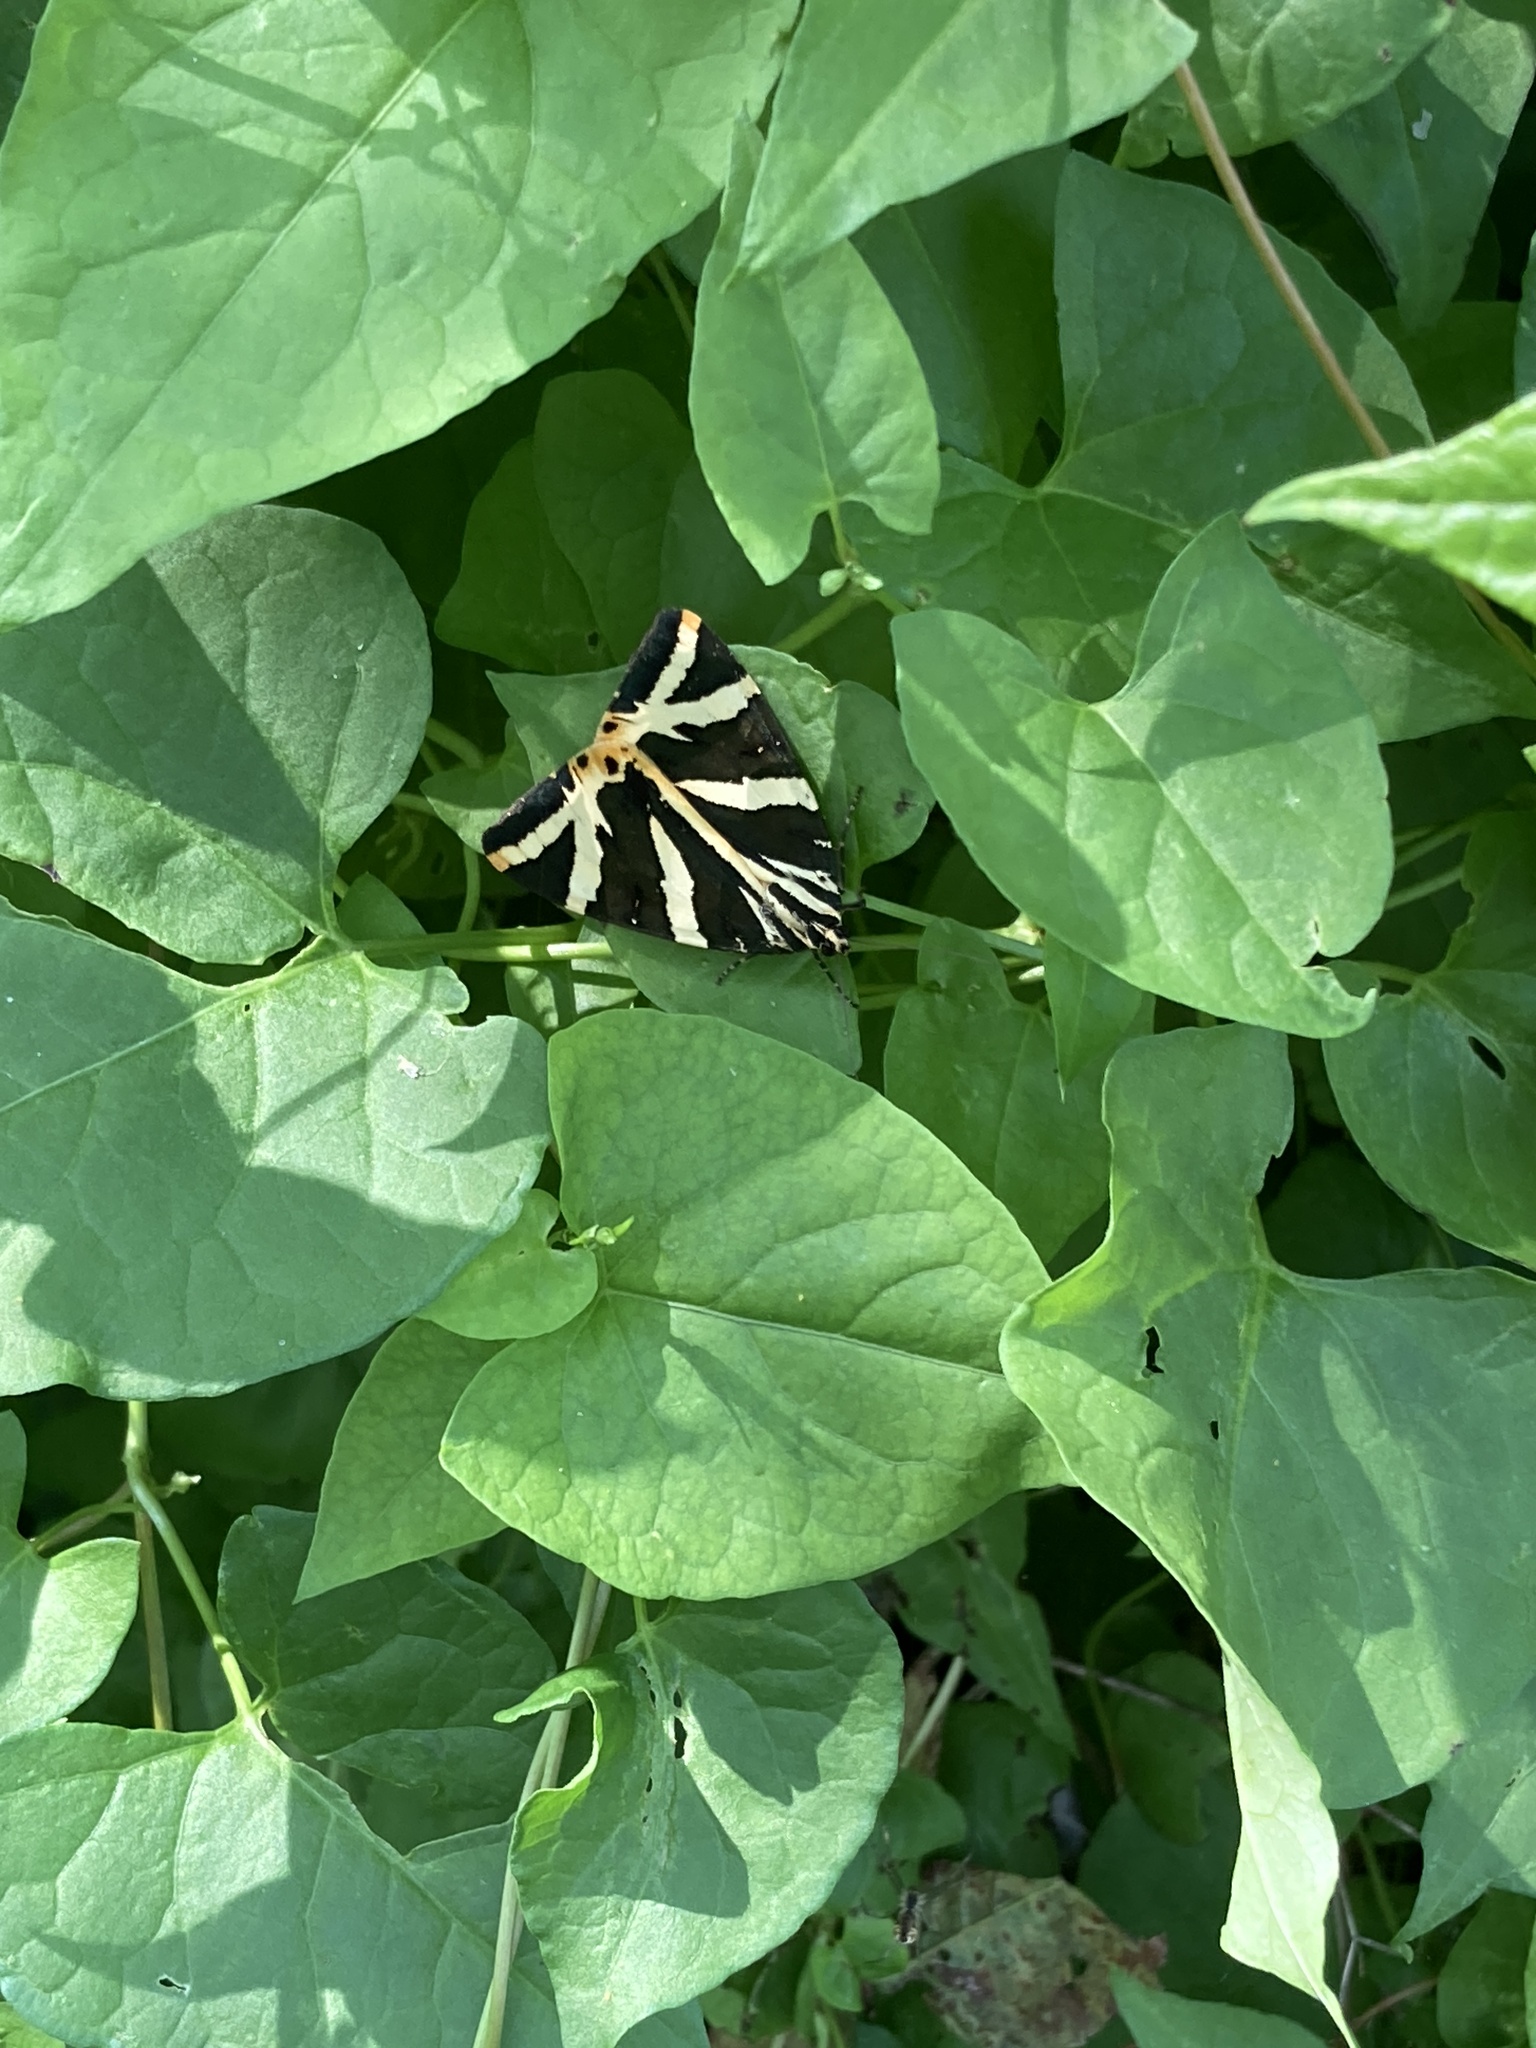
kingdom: Animalia
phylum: Arthropoda
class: Insecta
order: Lepidoptera
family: Erebidae
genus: Euplagia
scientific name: Euplagia quadripunctaria
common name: Jersey tiger
